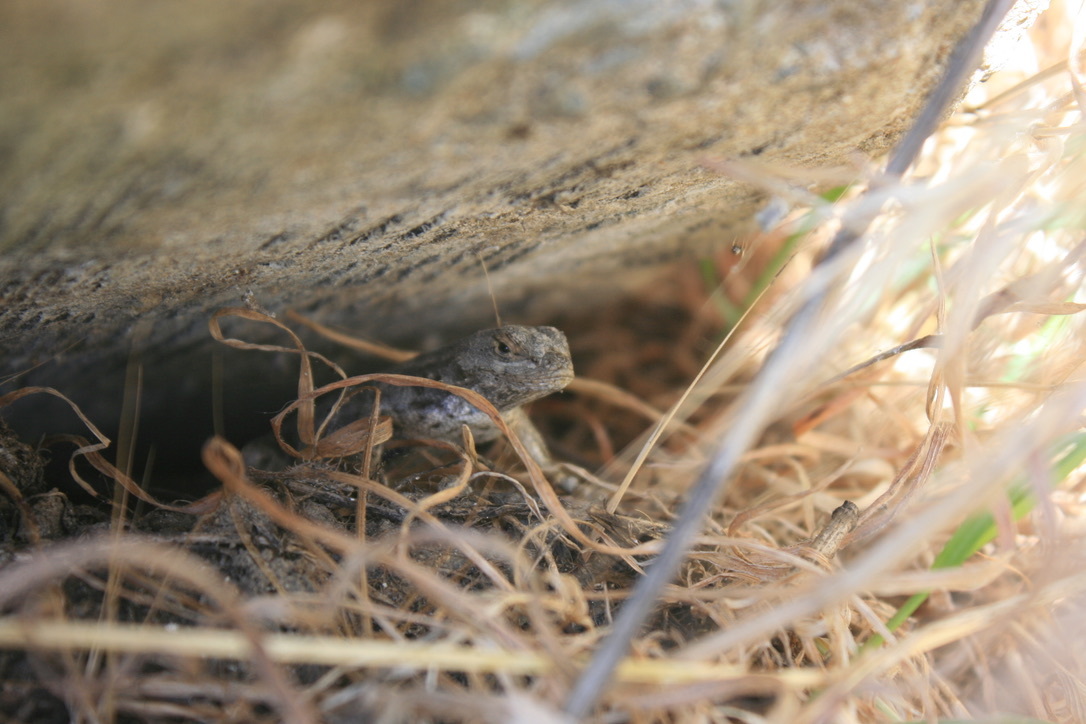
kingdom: Animalia
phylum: Chordata
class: Squamata
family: Phrynosomatidae
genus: Sceloporus
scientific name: Sceloporus occidentalis
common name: Western fence lizard
